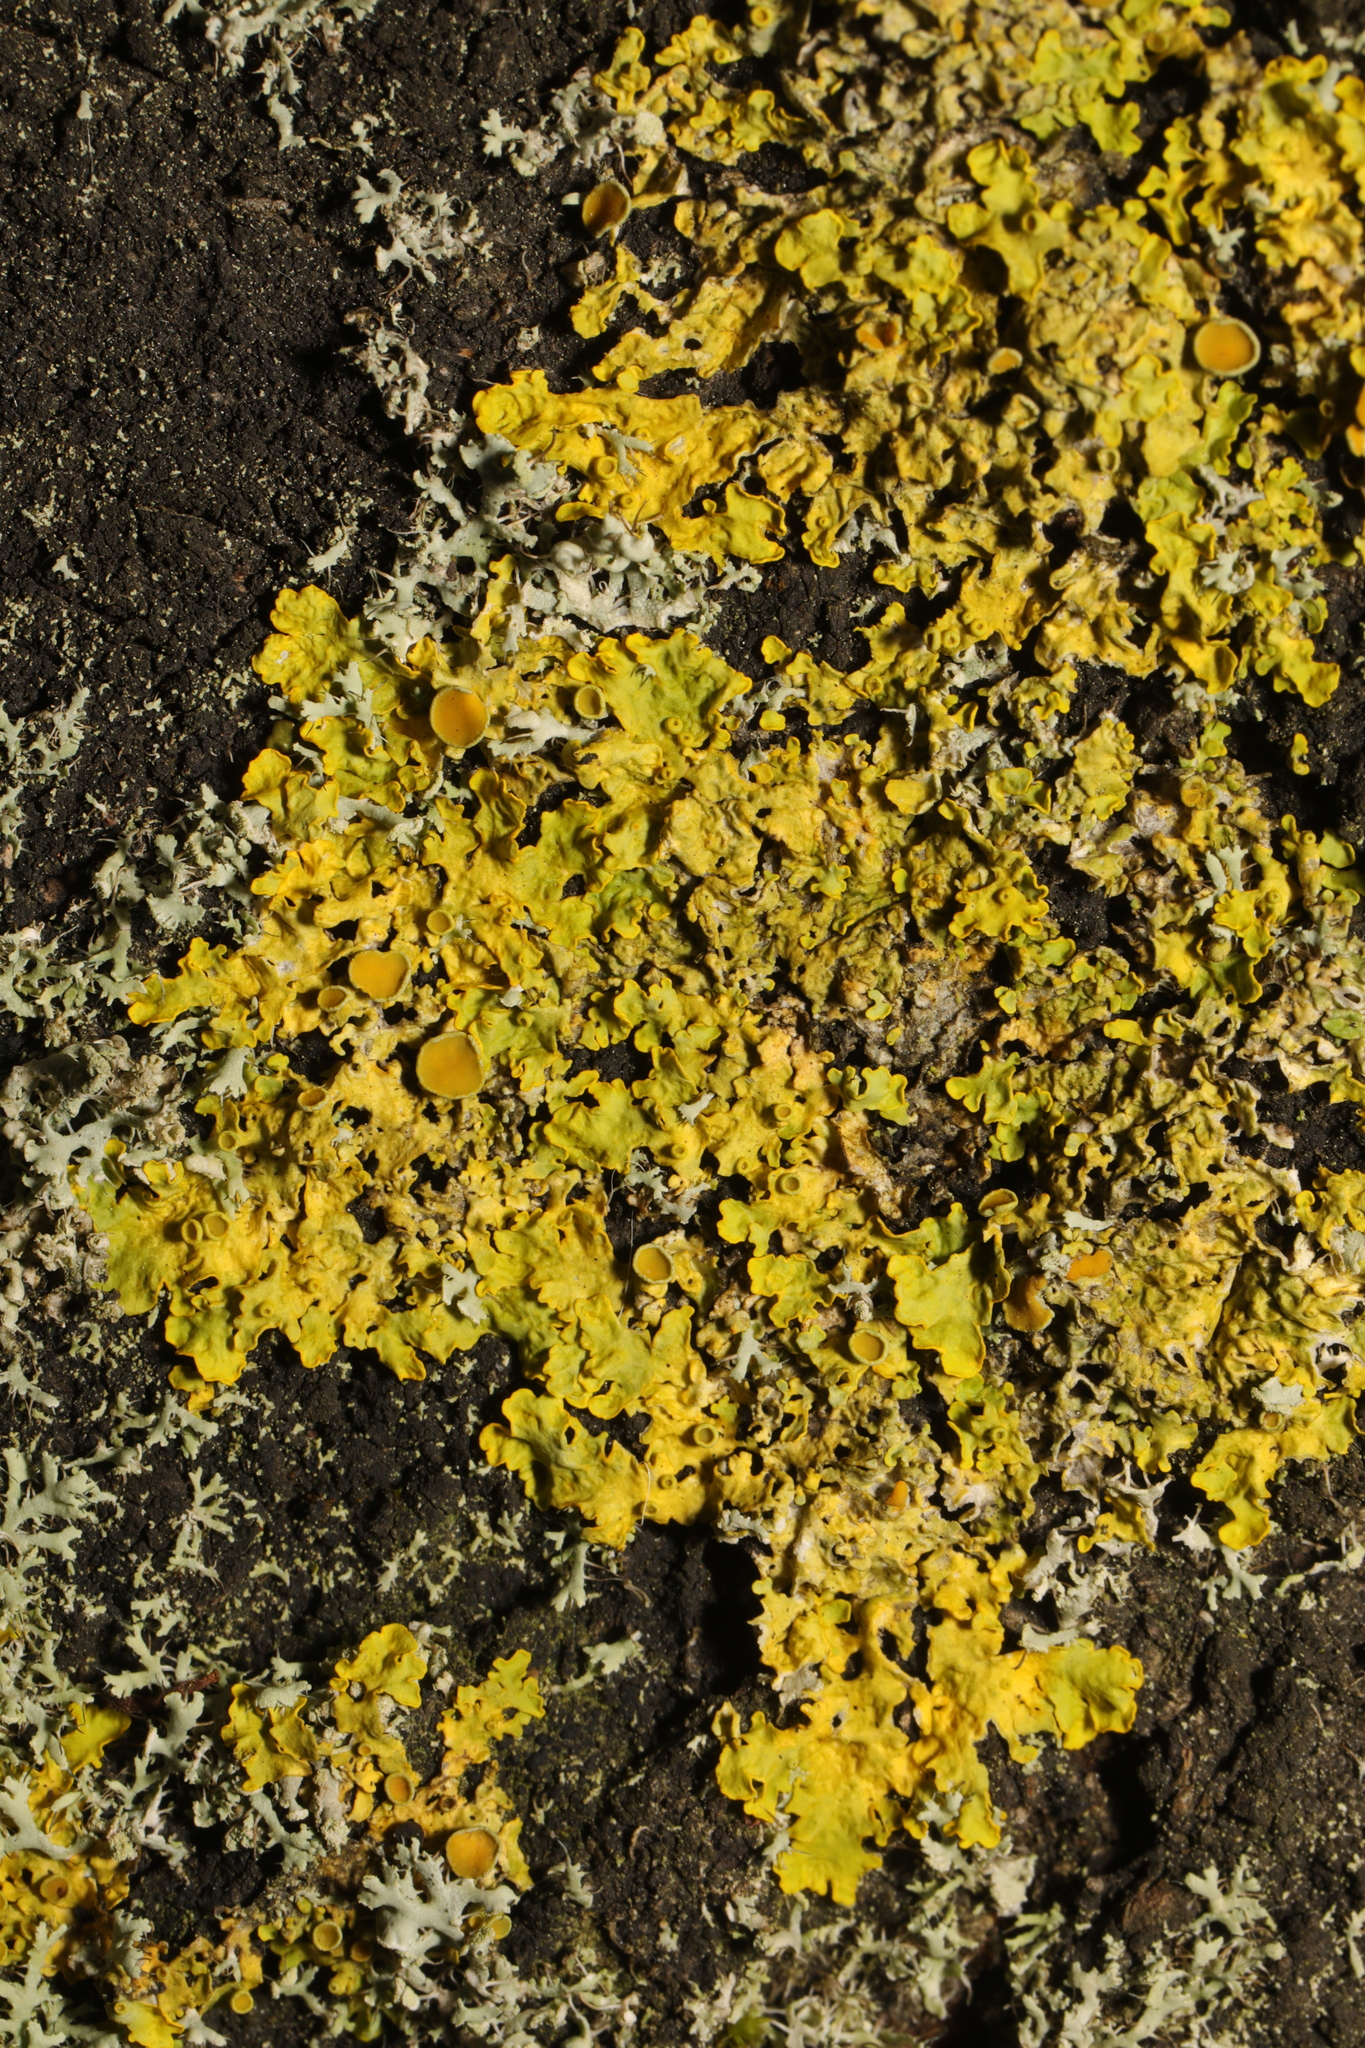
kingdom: Fungi
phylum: Ascomycota
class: Lecanoromycetes
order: Teloschistales
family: Teloschistaceae
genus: Xanthoria
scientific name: Xanthoria parietina
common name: Common orange lichen
